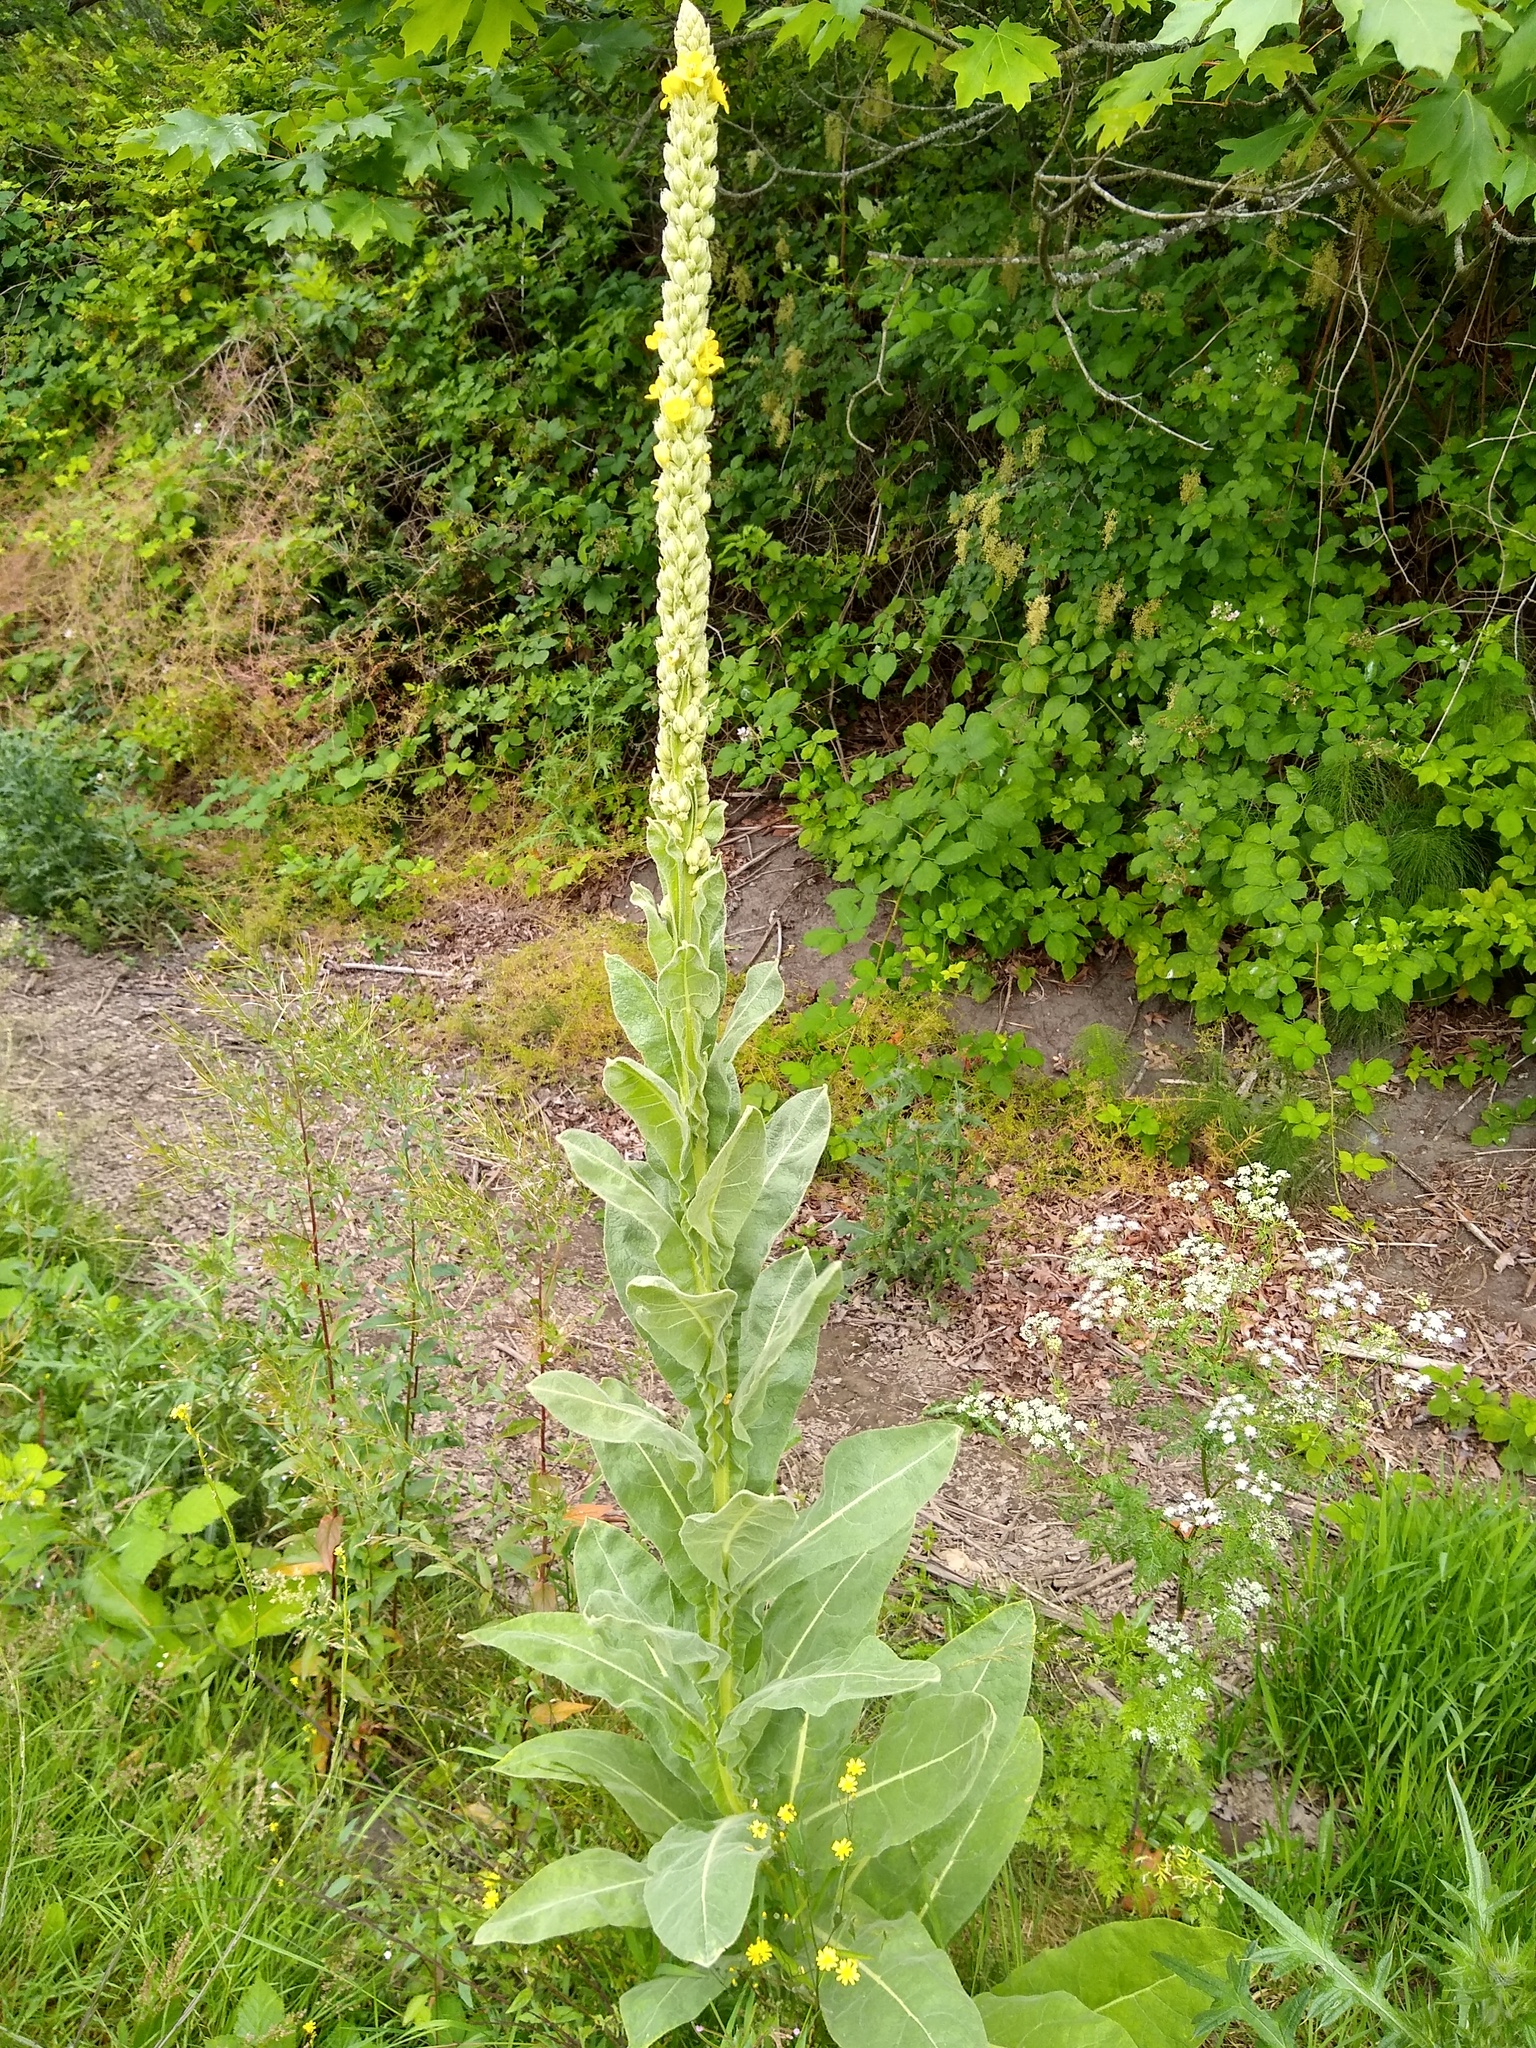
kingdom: Plantae
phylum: Tracheophyta
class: Magnoliopsida
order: Lamiales
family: Scrophulariaceae
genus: Verbascum
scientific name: Verbascum thapsus
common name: Common mullein
